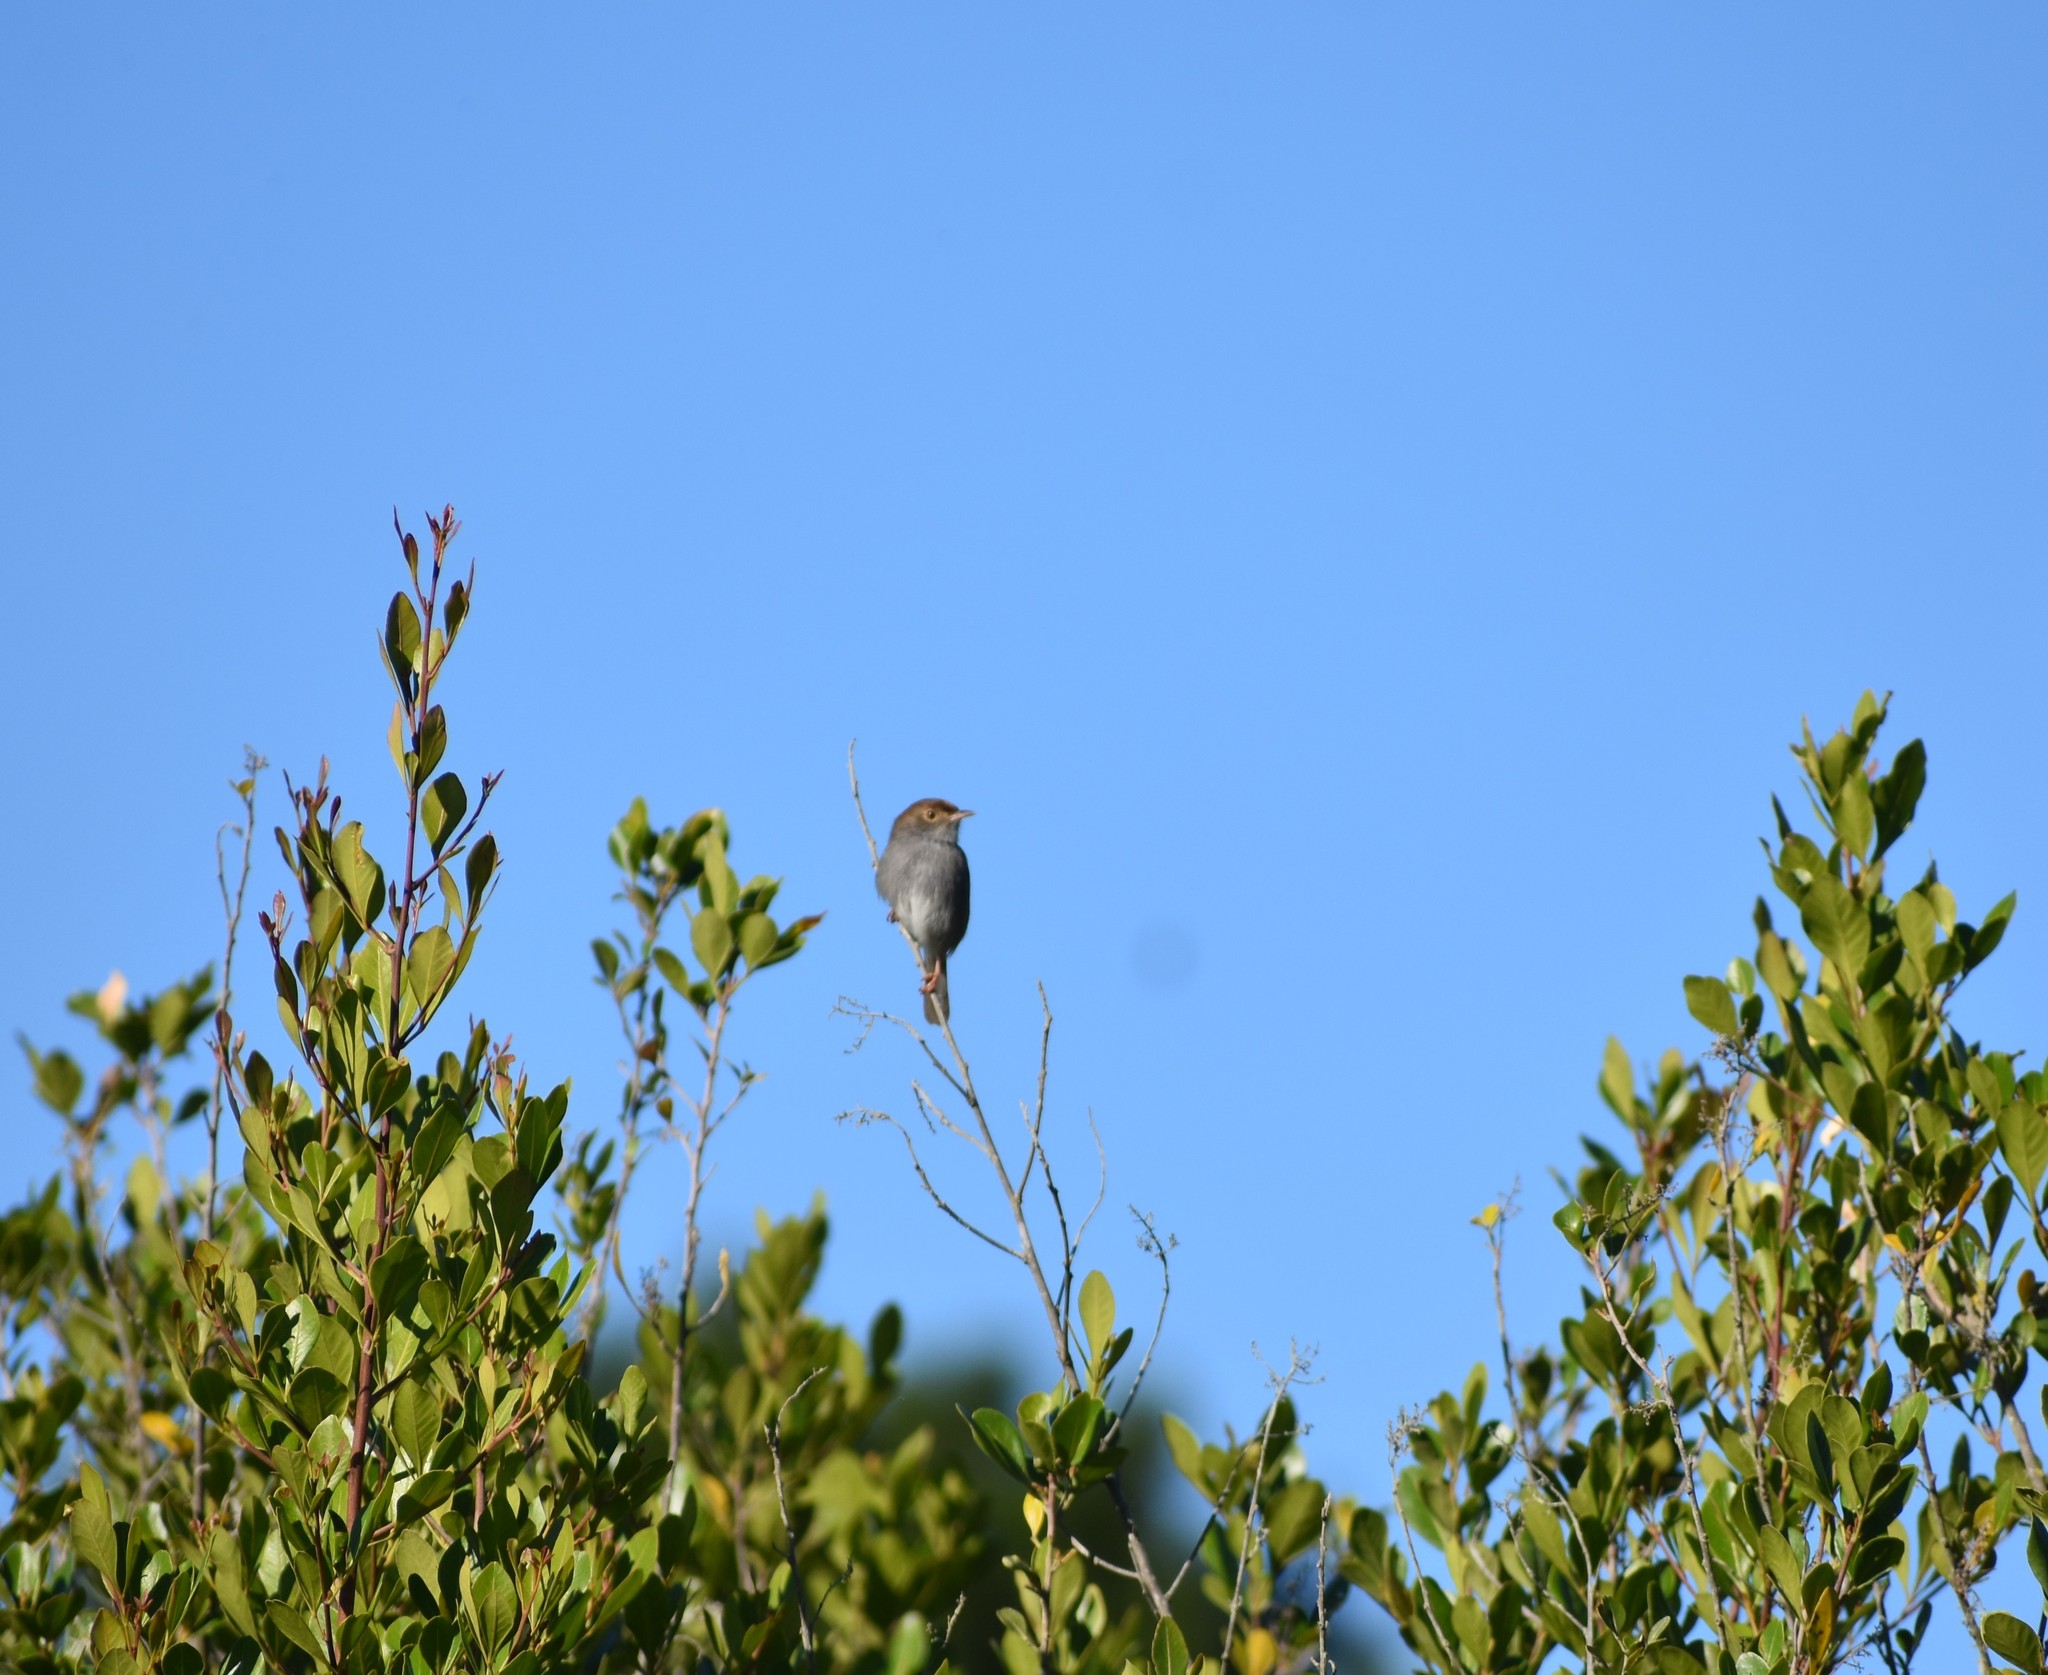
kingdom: Animalia
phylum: Chordata
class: Aves
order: Passeriformes
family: Cisticolidae
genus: Cisticola
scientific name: Cisticola fulvicapilla
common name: Neddicky
